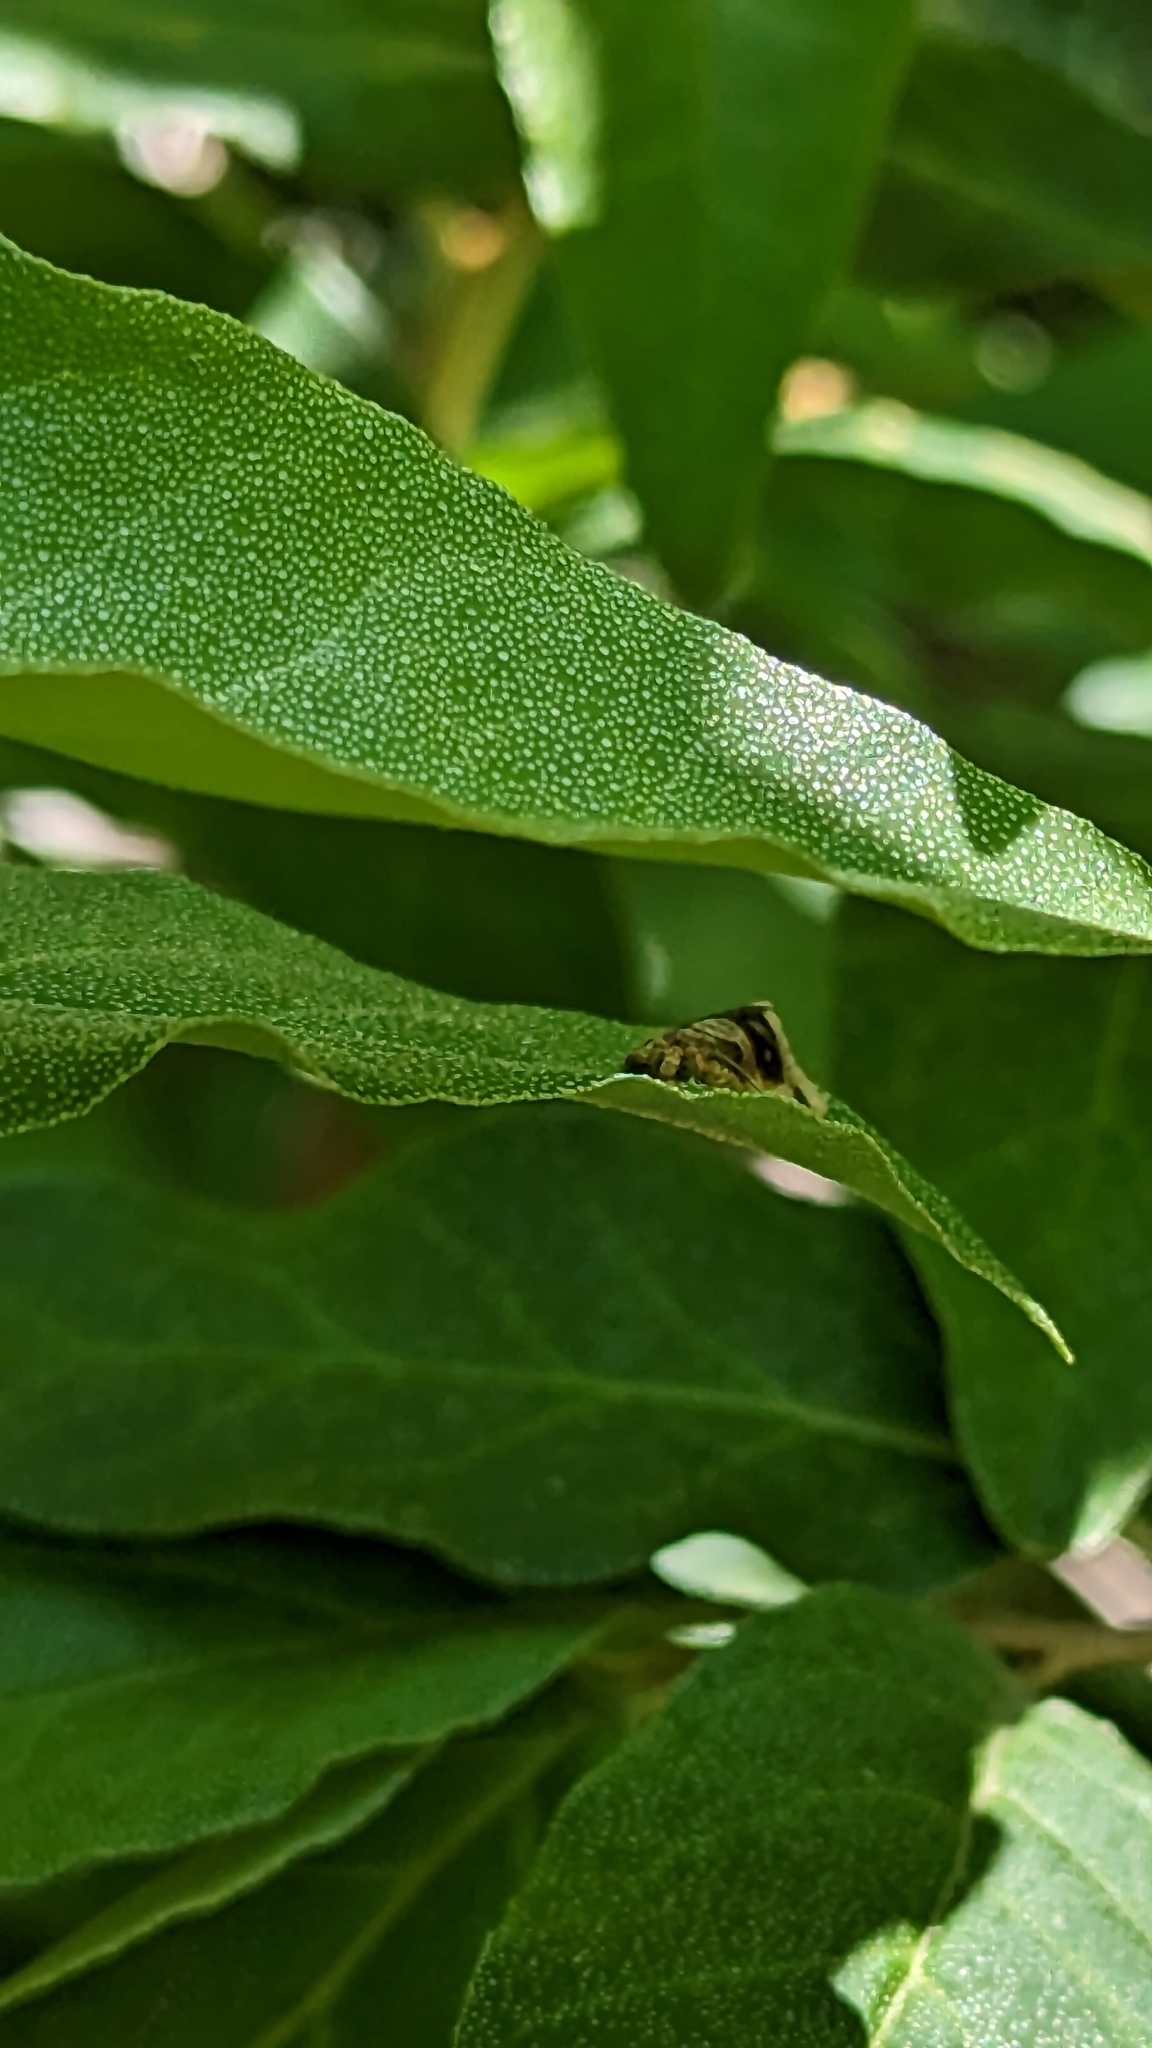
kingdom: Animalia
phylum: Arthropoda
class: Insecta
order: Lepidoptera
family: Tortricidae
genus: Clepsis
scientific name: Clepsis melaleucanus
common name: American apple tortrix
